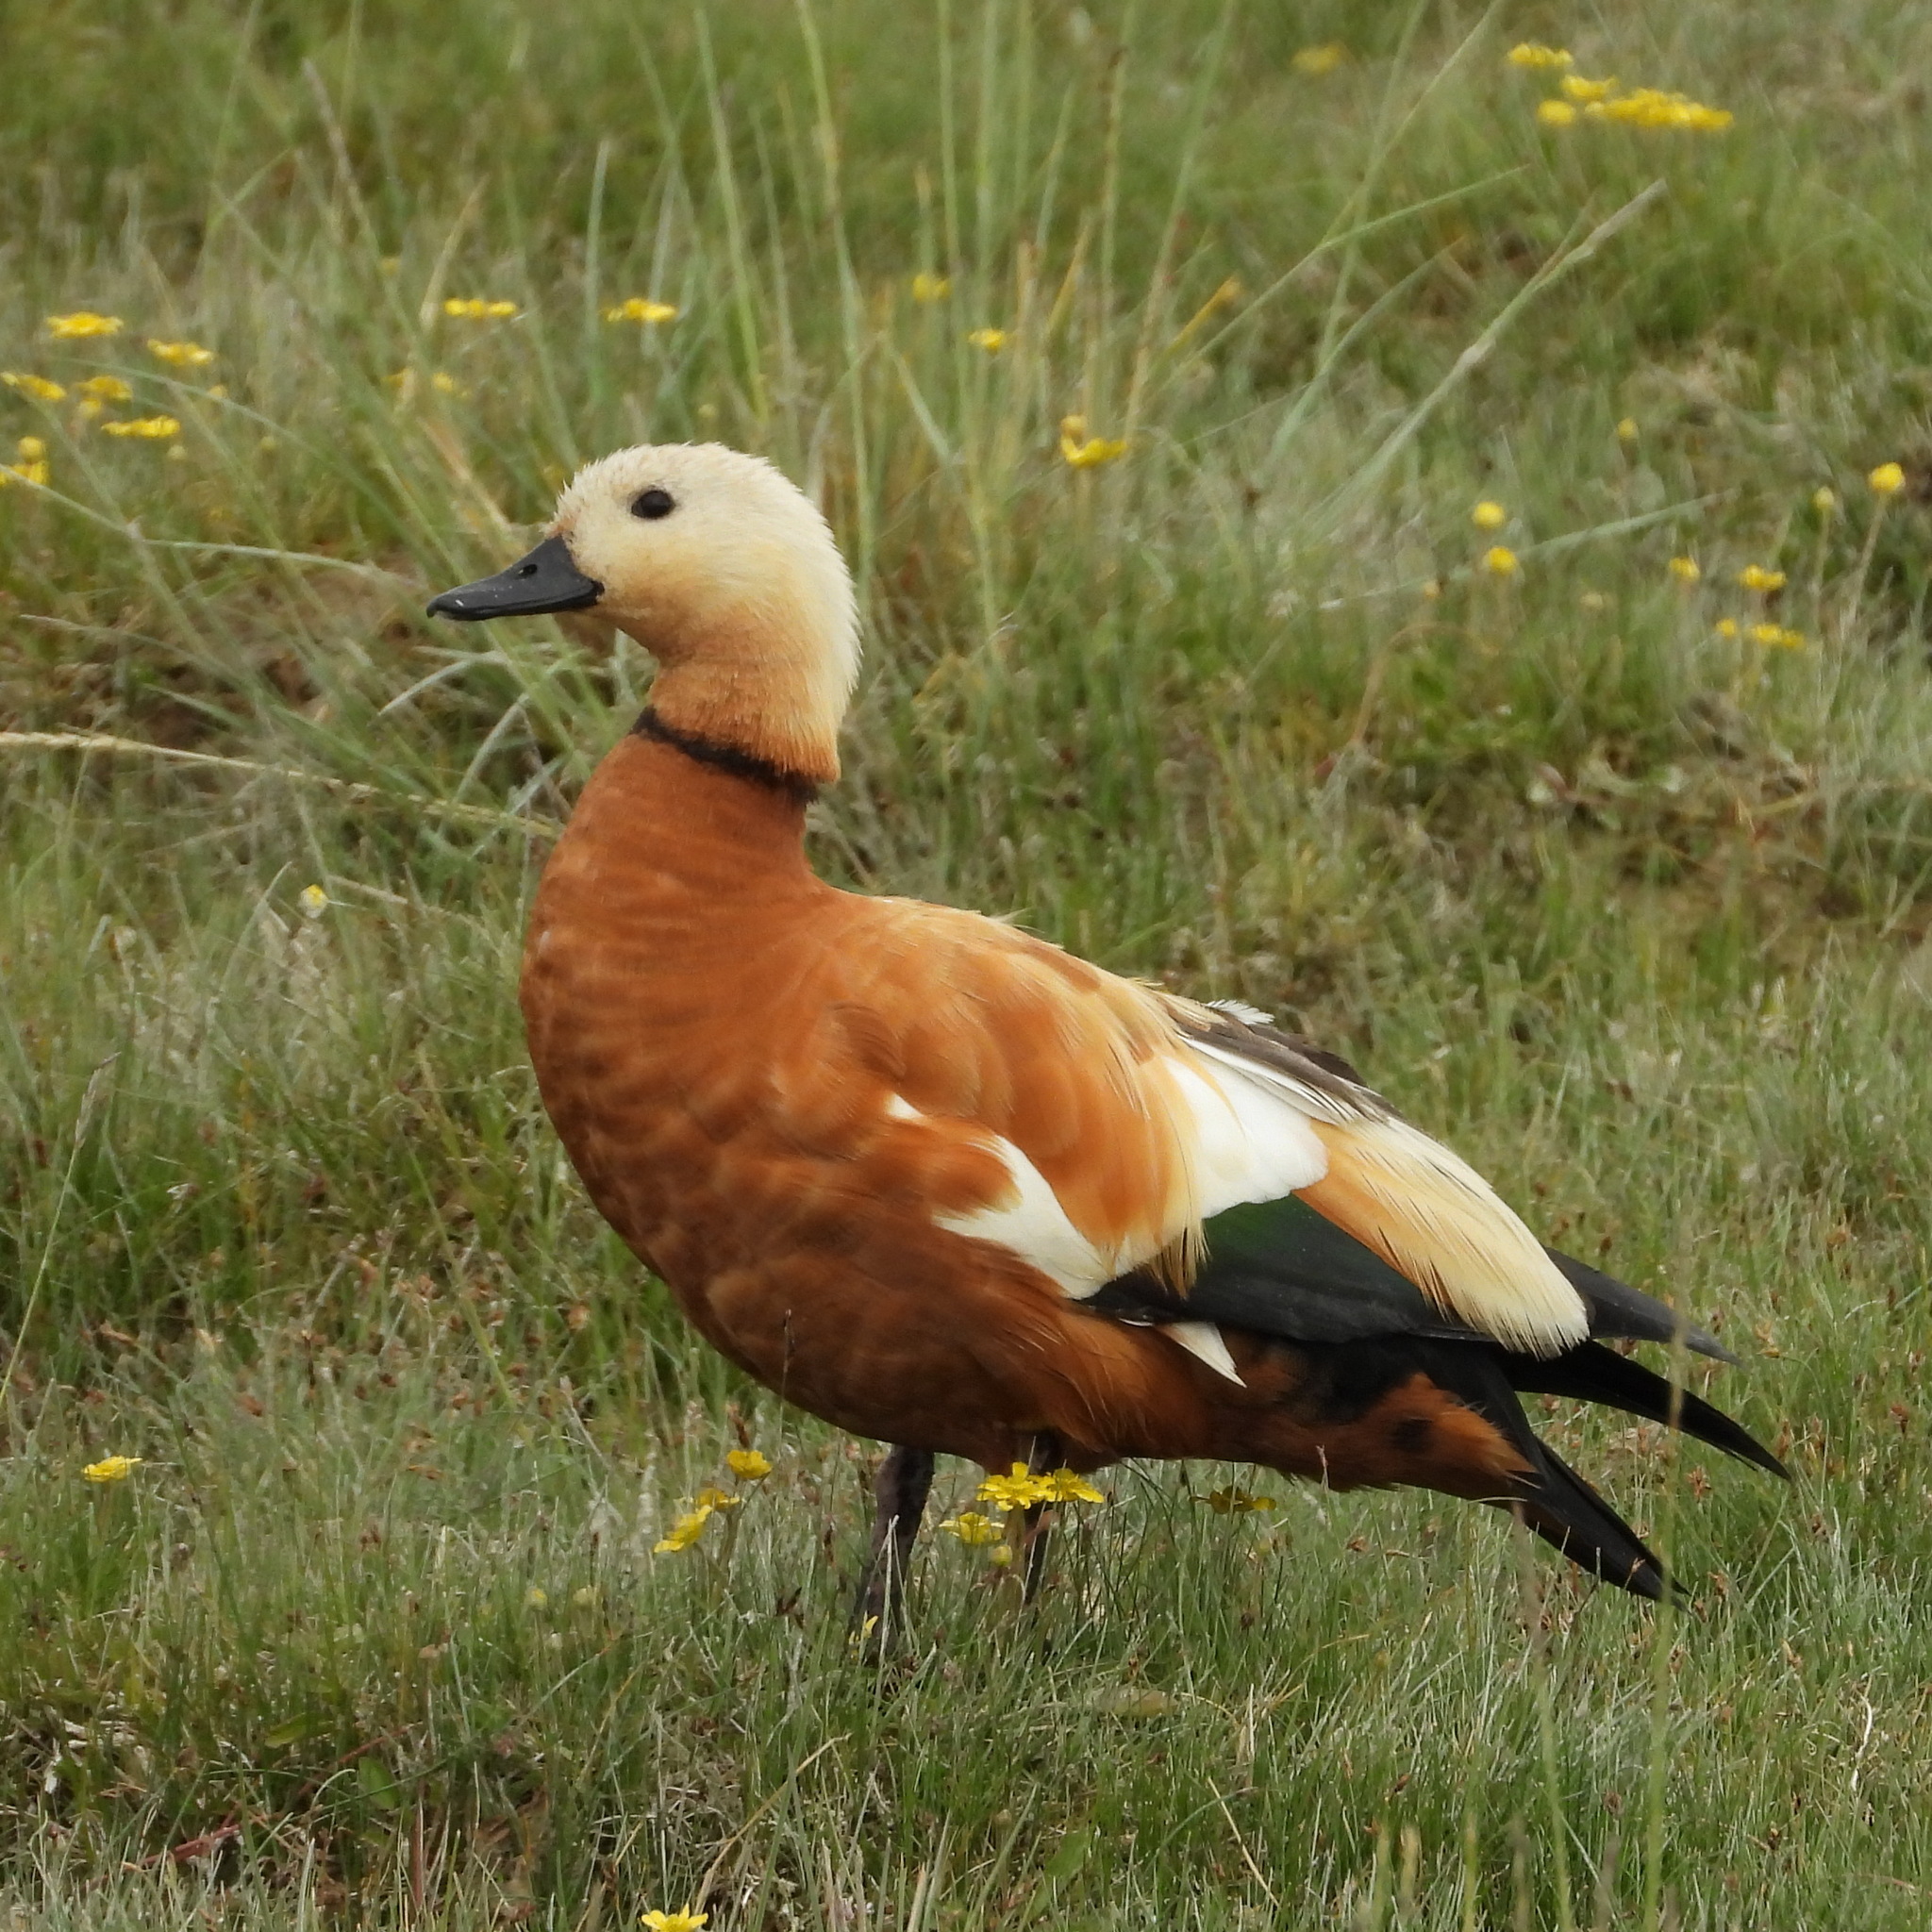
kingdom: Animalia
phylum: Chordata
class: Aves
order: Anseriformes
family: Anatidae
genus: Tadorna
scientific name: Tadorna ferruginea
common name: Ruddy shelduck
